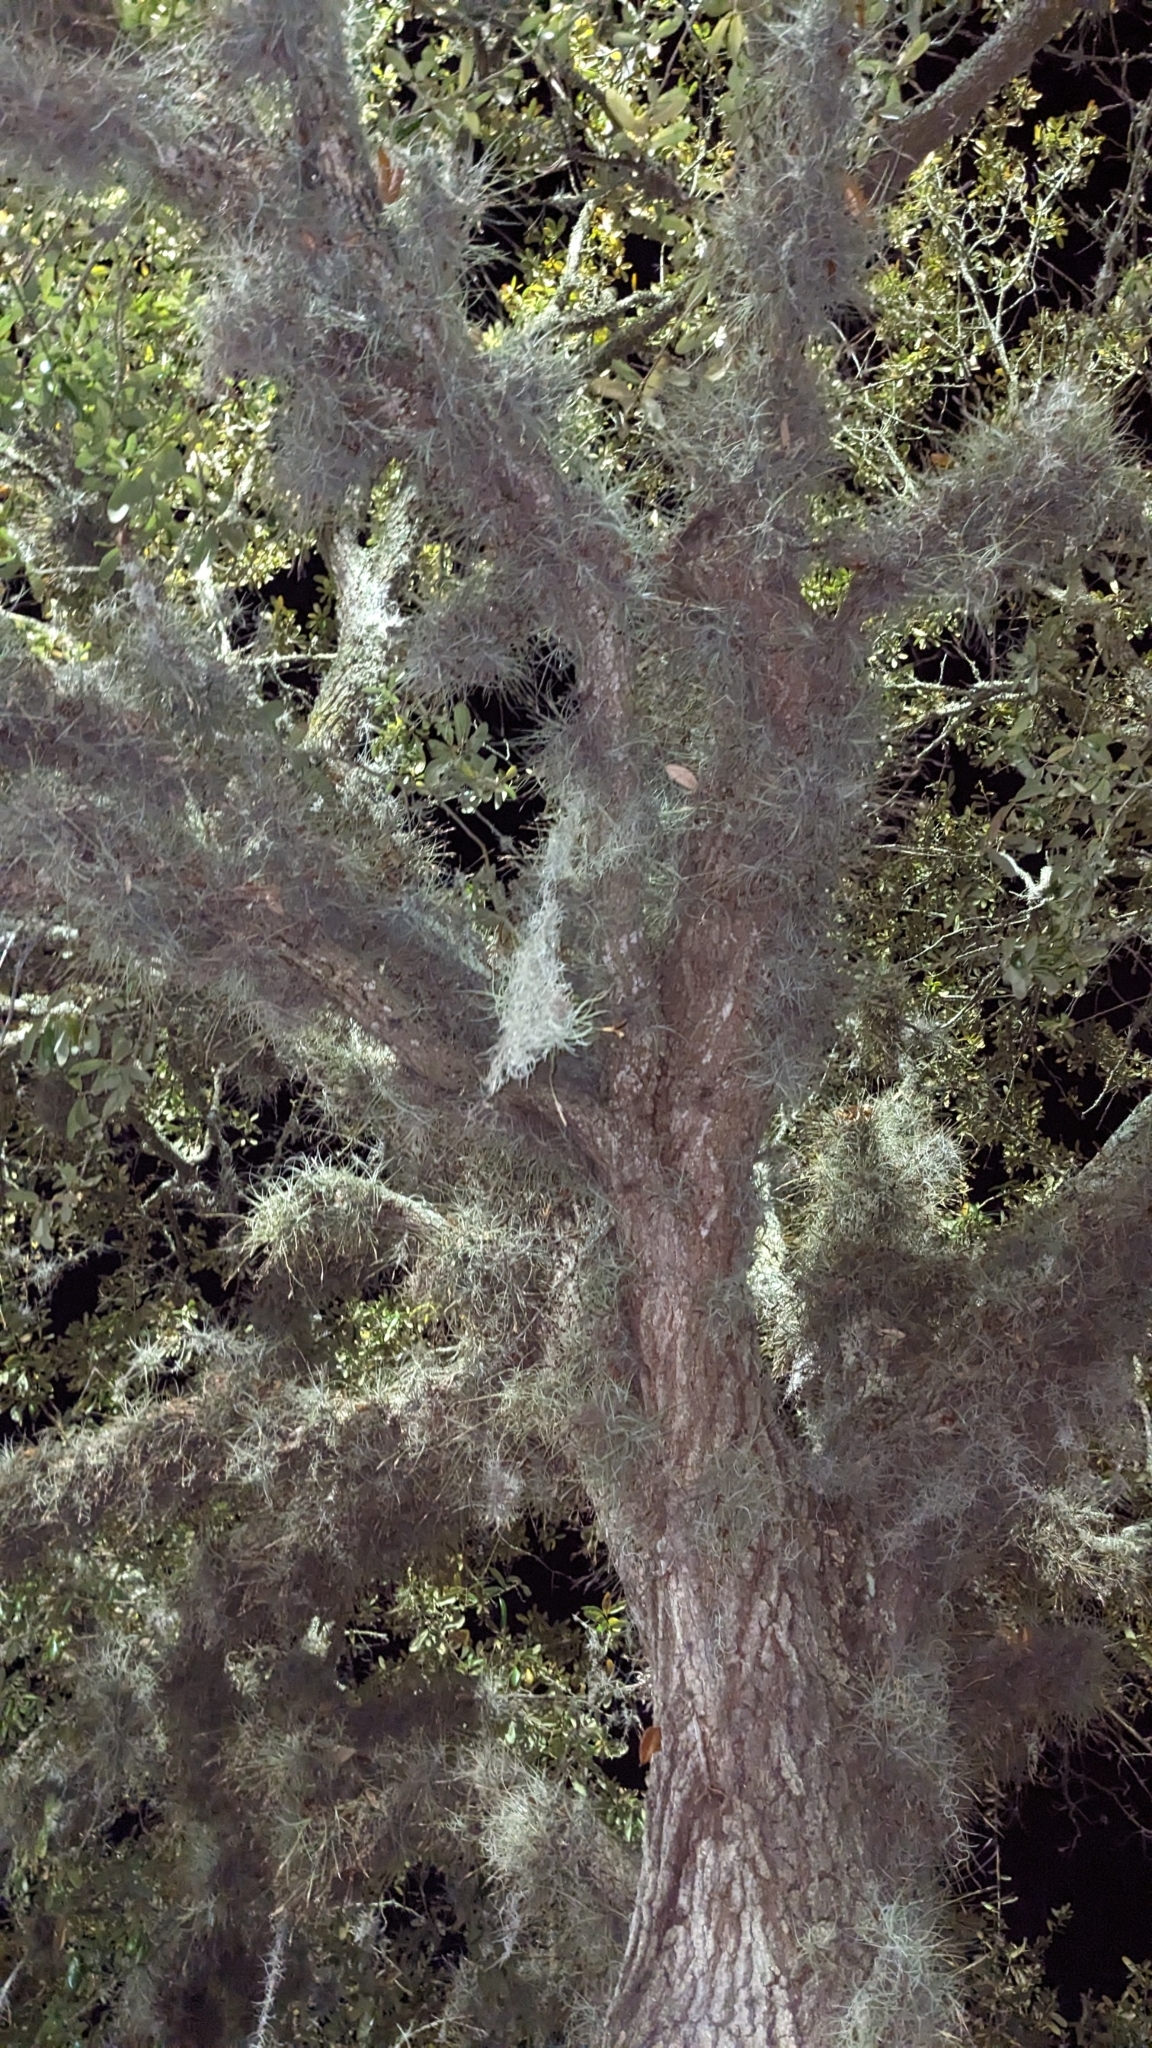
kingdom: Plantae
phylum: Tracheophyta
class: Liliopsida
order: Poales
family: Bromeliaceae
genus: Tillandsia
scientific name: Tillandsia recurvata
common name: Small ballmoss
